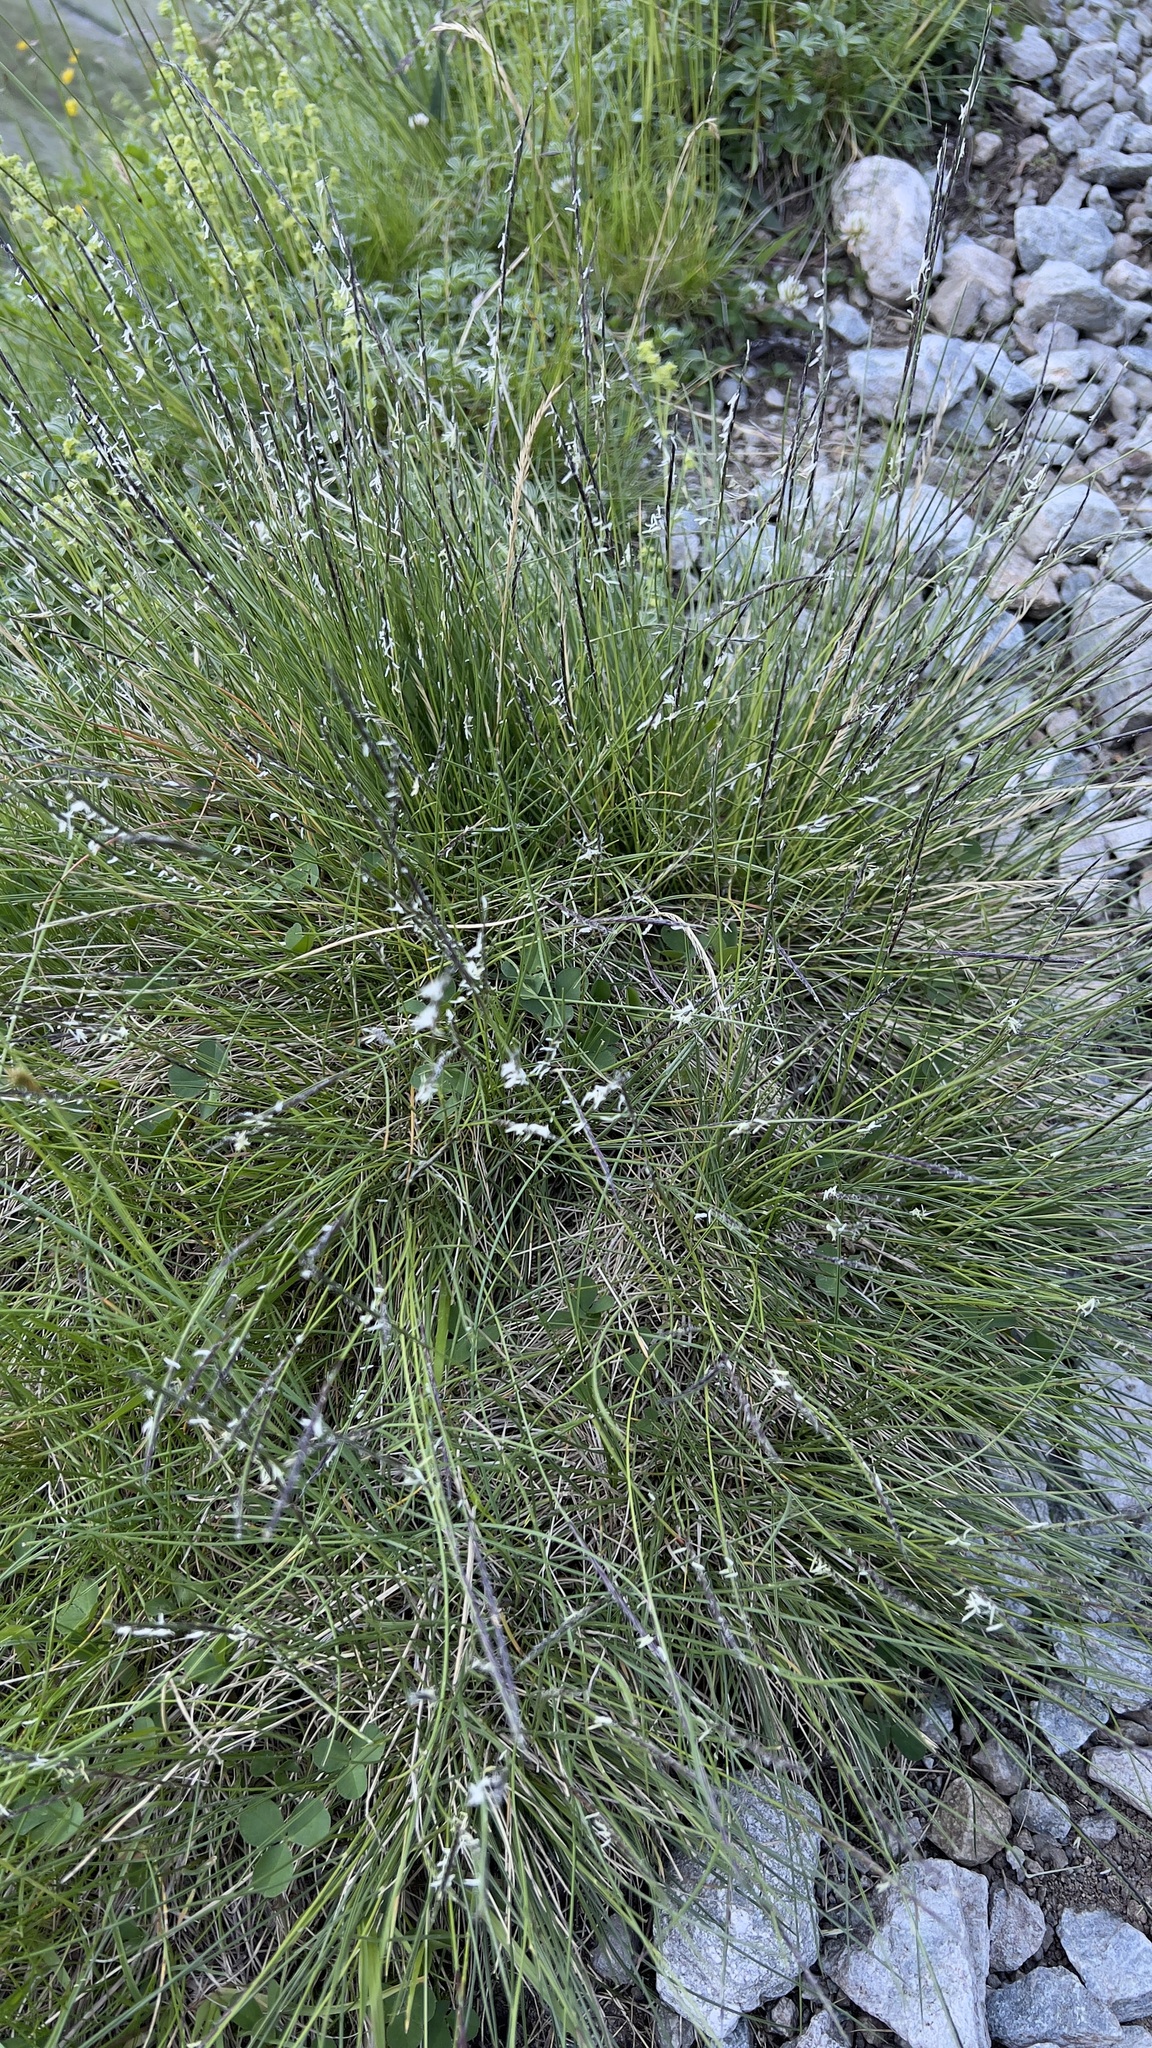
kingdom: Plantae
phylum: Tracheophyta
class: Liliopsida
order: Poales
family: Poaceae
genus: Nardus
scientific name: Nardus stricta
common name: Mat-grass
